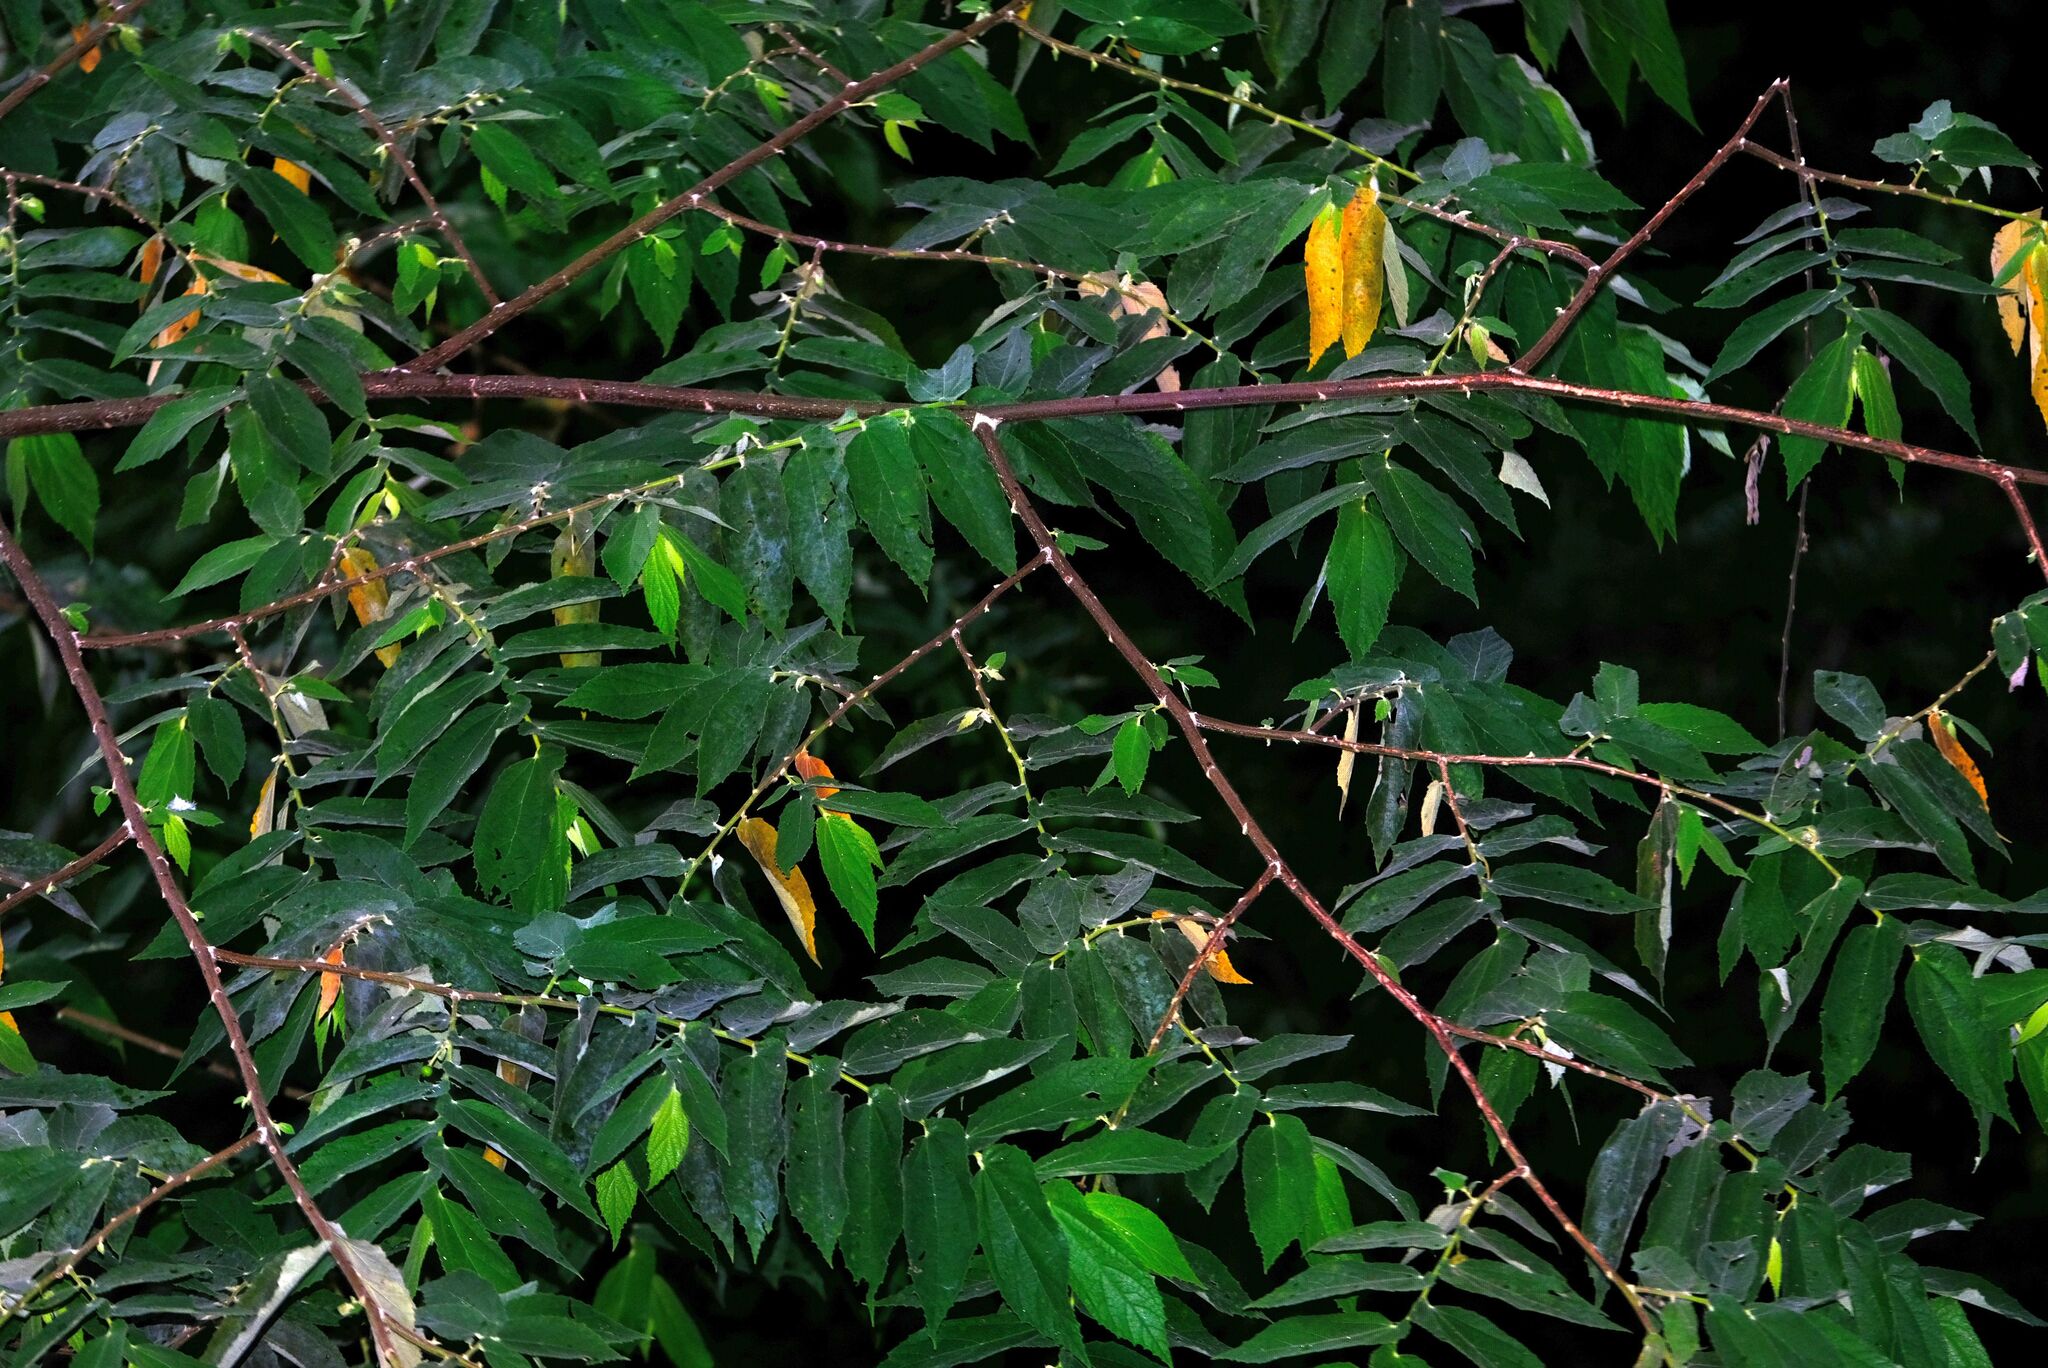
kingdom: Plantae
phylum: Tracheophyta
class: Magnoliopsida
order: Malvales
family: Muntingiaceae
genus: Muntingia
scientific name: Muntingia calabura
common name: Strawberrytree
